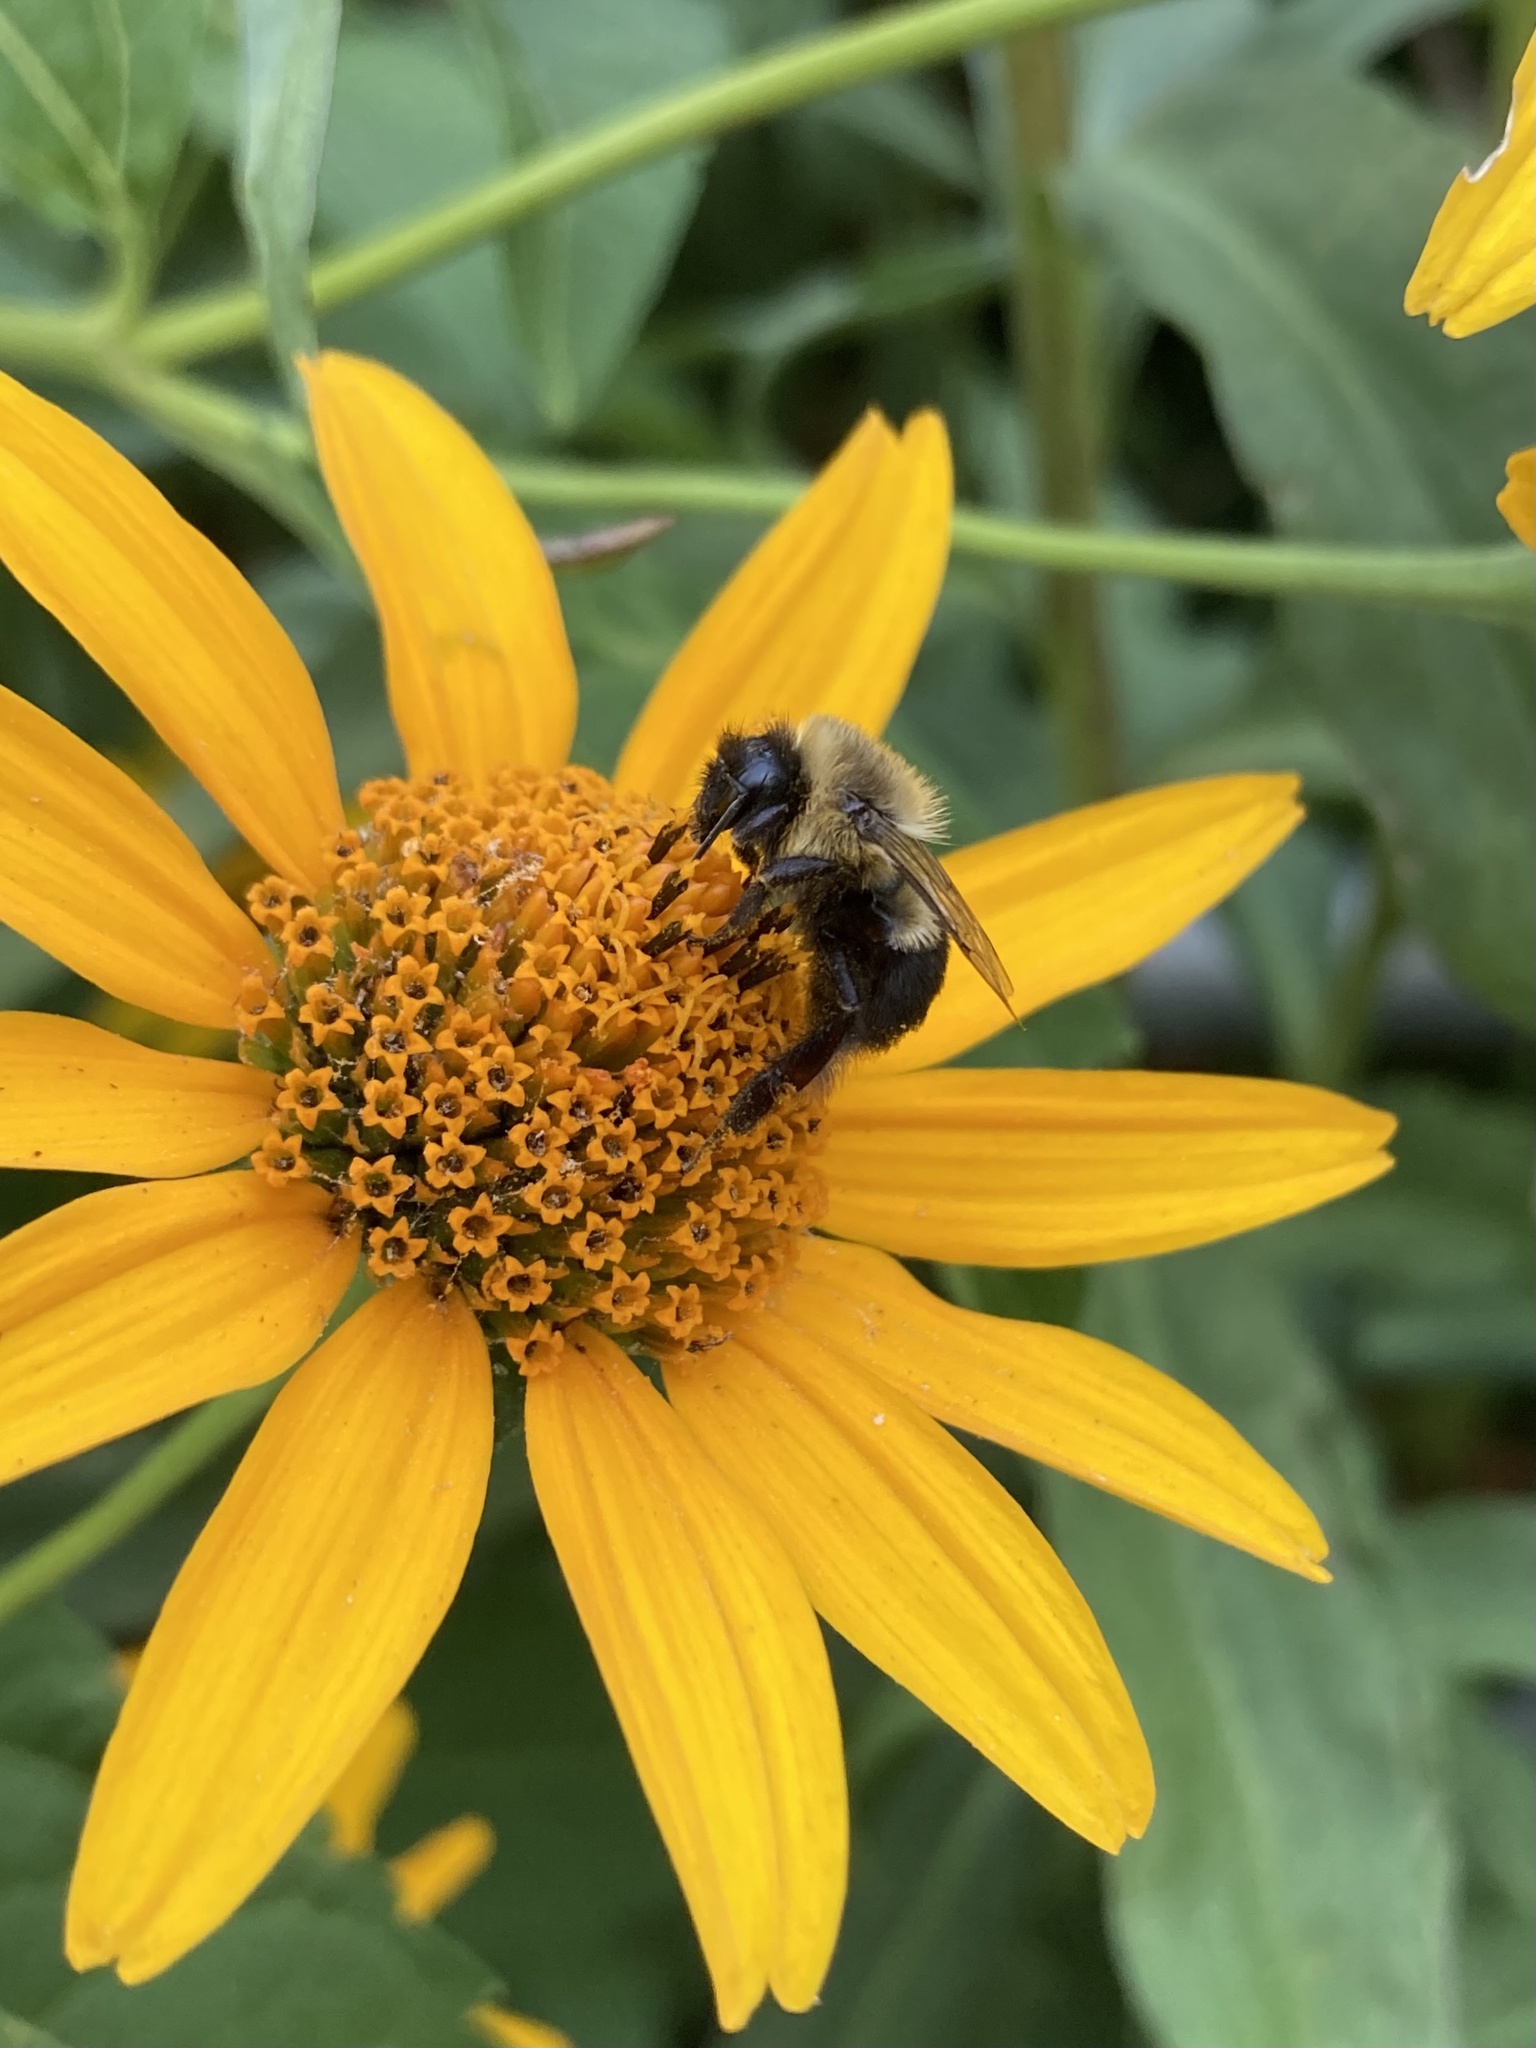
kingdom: Animalia
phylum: Arthropoda
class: Insecta
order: Hymenoptera
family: Apidae
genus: Bombus
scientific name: Bombus impatiens
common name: Common eastern bumble bee
